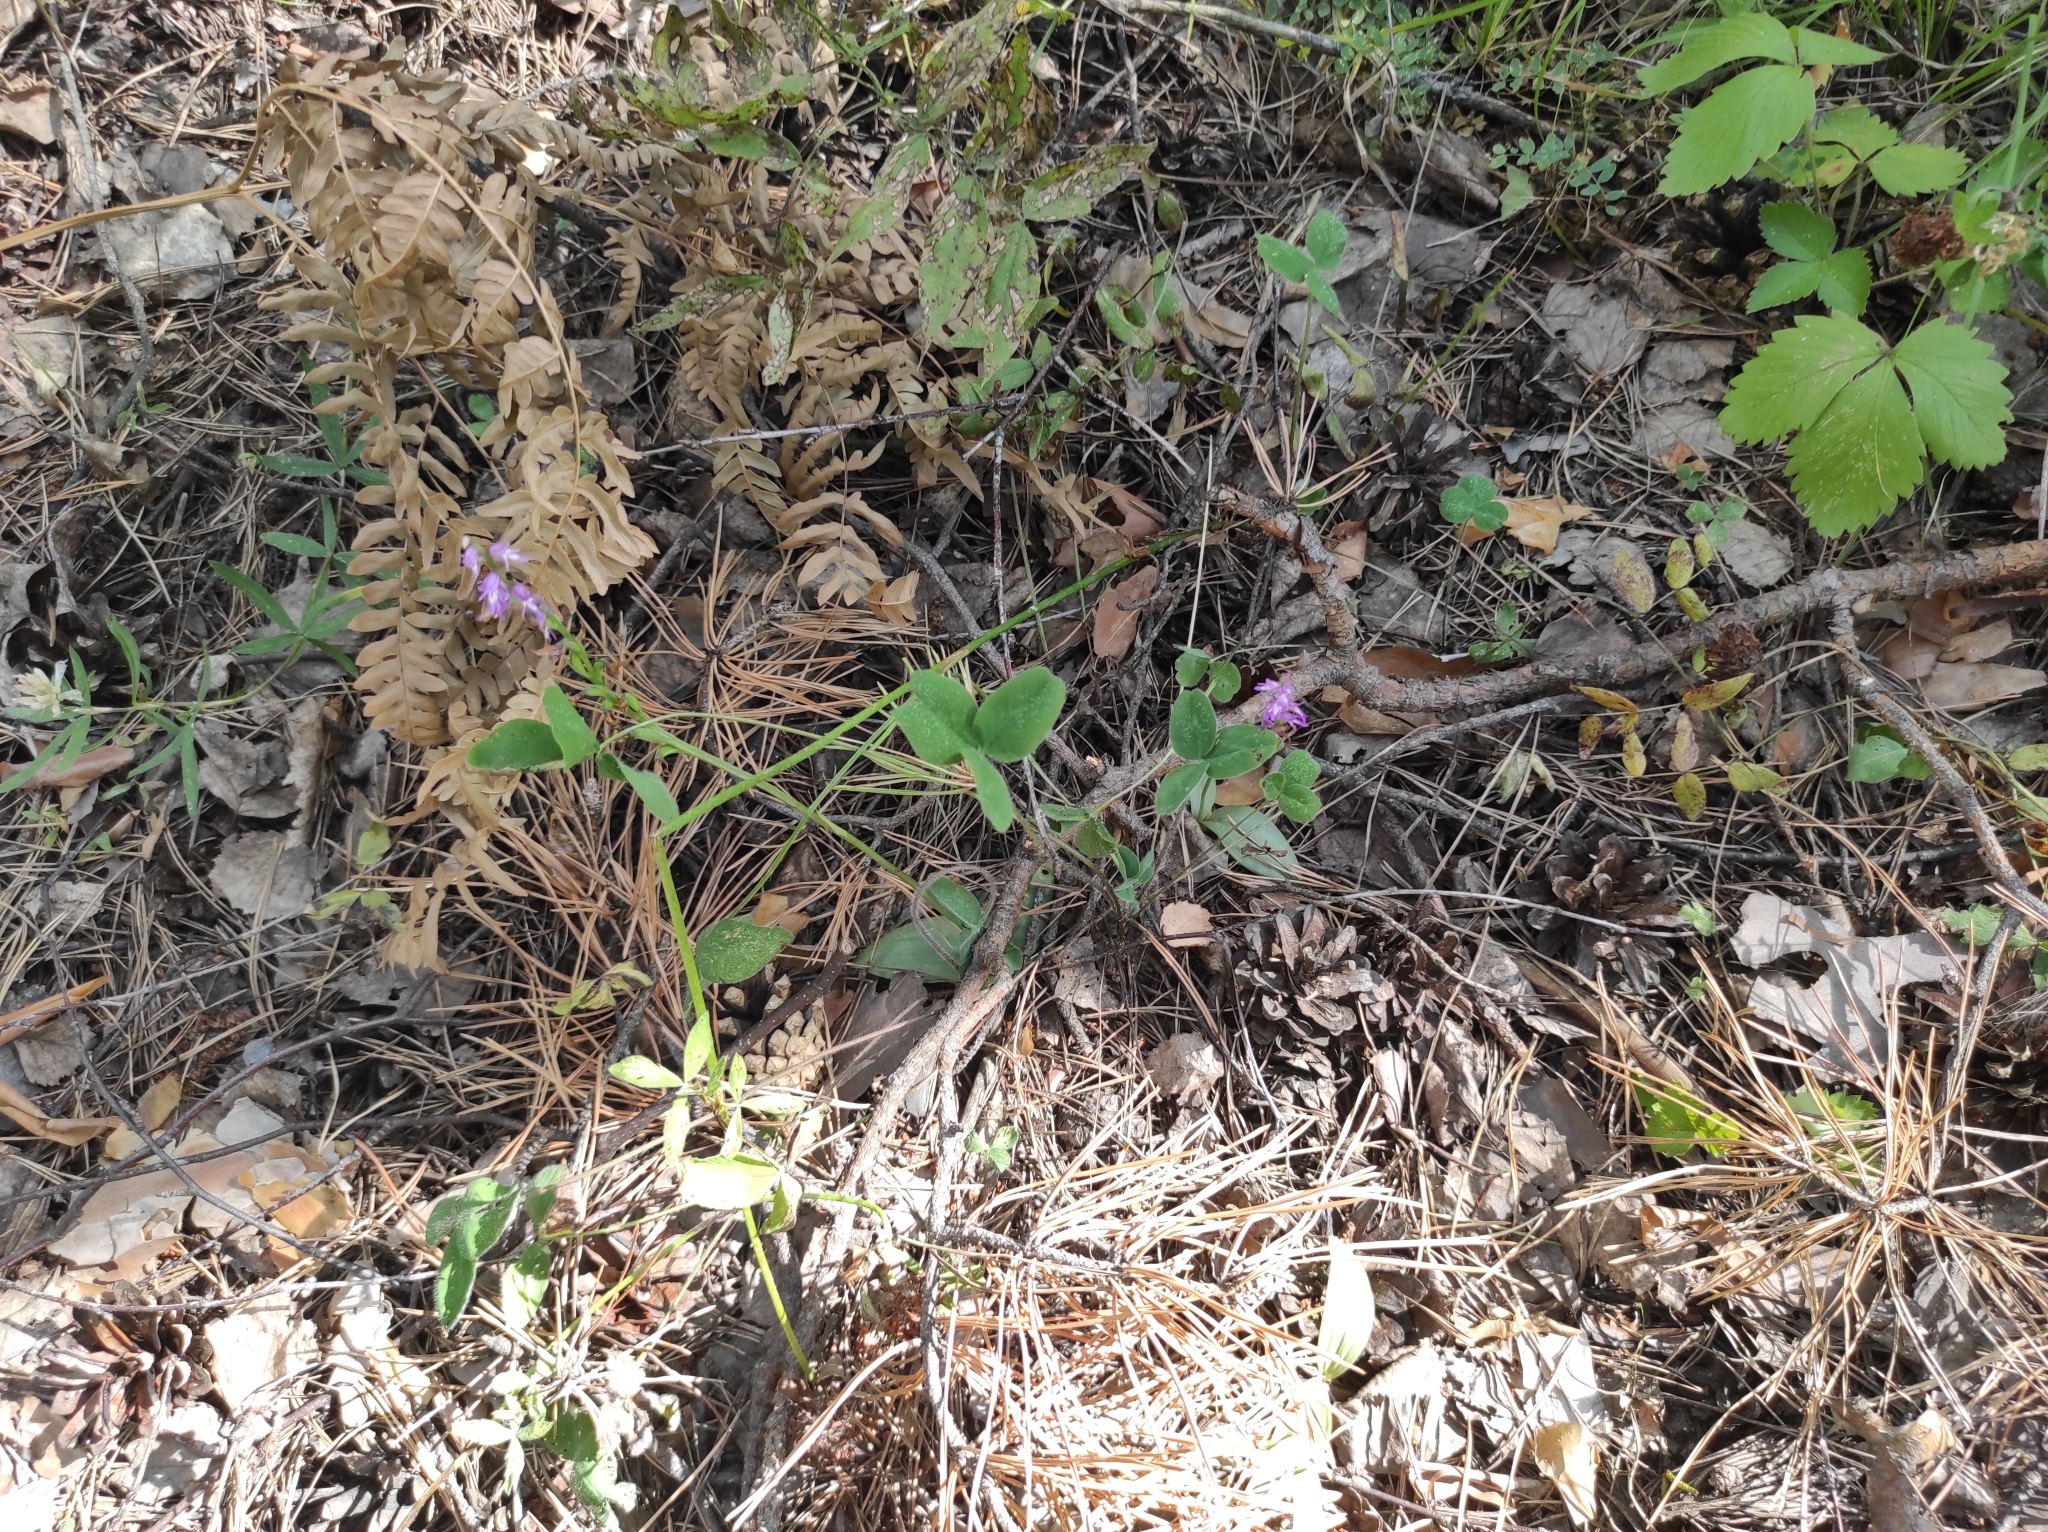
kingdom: Plantae
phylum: Tracheophyta
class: Liliopsida
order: Asparagales
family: Orchidaceae
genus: Hemipilia
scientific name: Hemipilia cucullata
